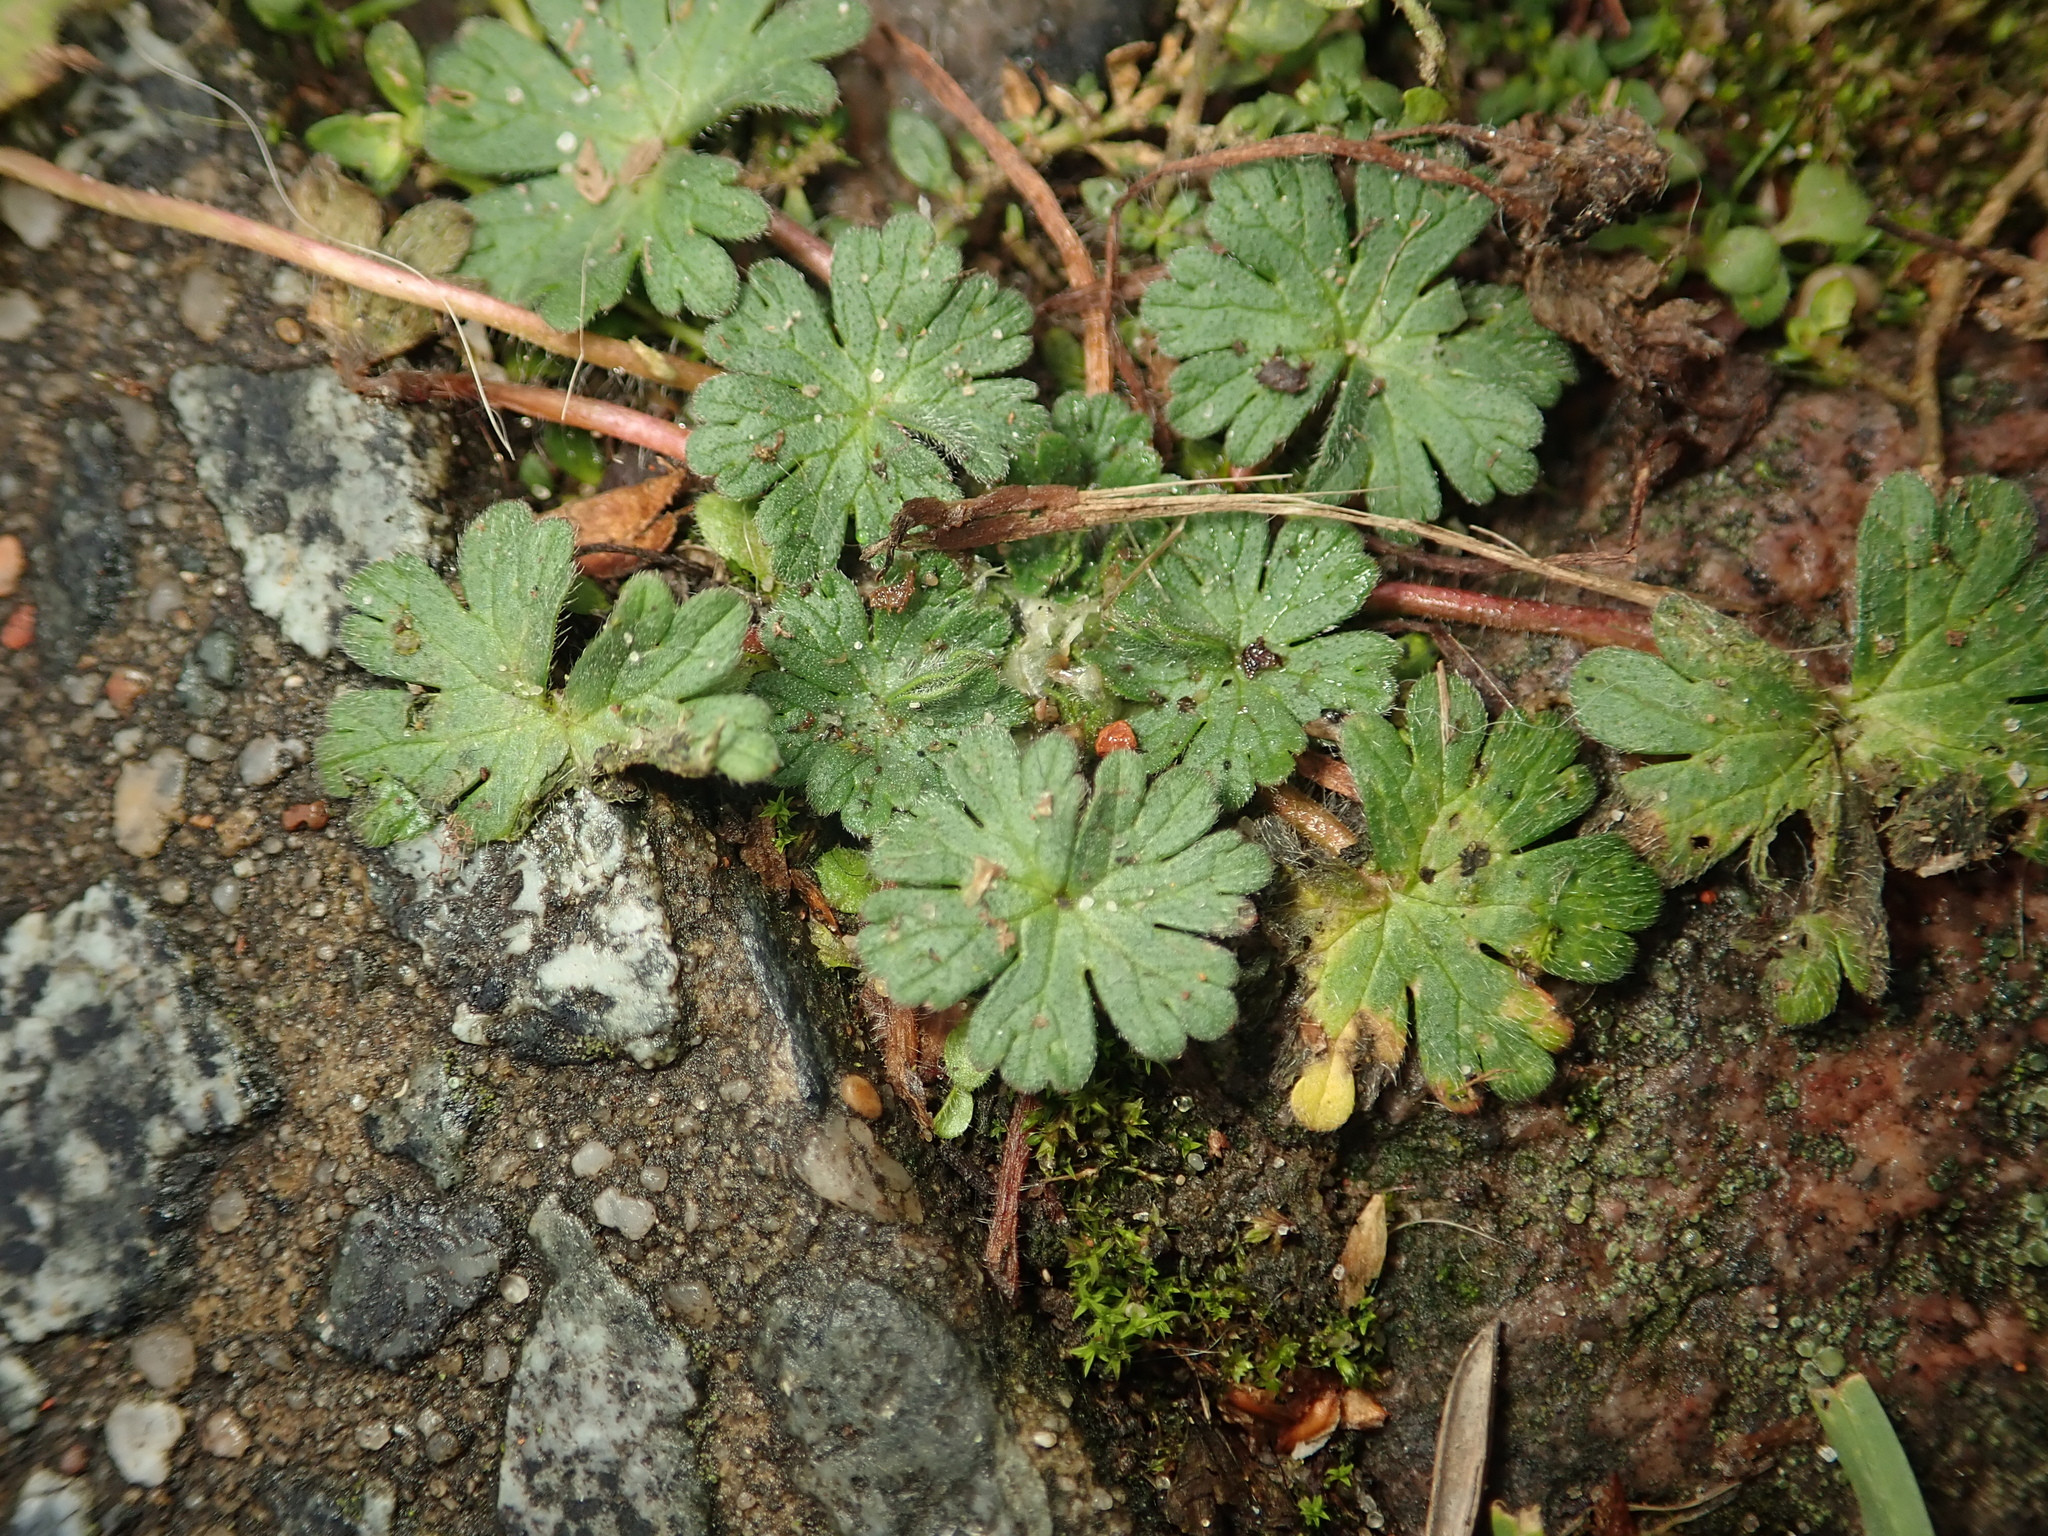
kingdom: Plantae
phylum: Tracheophyta
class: Magnoliopsida
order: Geraniales
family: Geraniaceae
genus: Geranium
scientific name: Geranium molle
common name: Dove's-foot crane's-bill
